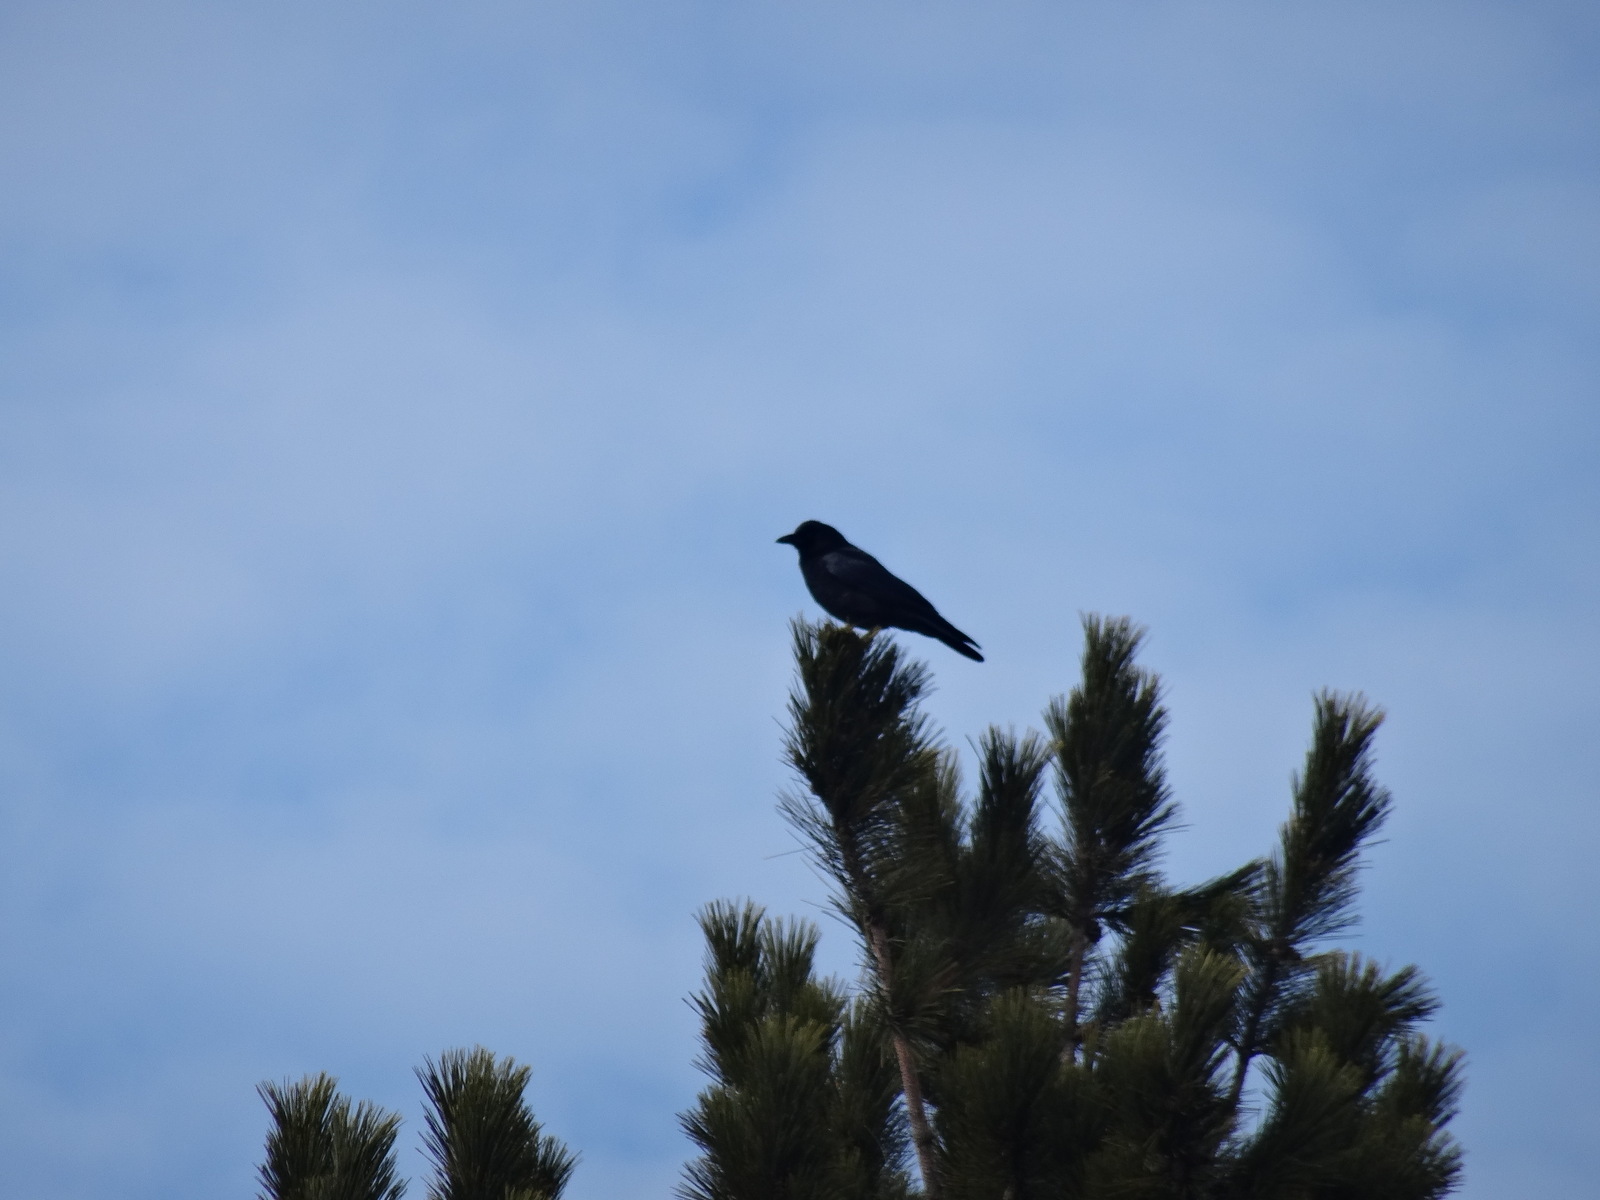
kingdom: Animalia
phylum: Chordata
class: Aves
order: Passeriformes
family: Corvidae
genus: Corvus
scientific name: Corvus brachyrhynchos
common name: American crow
